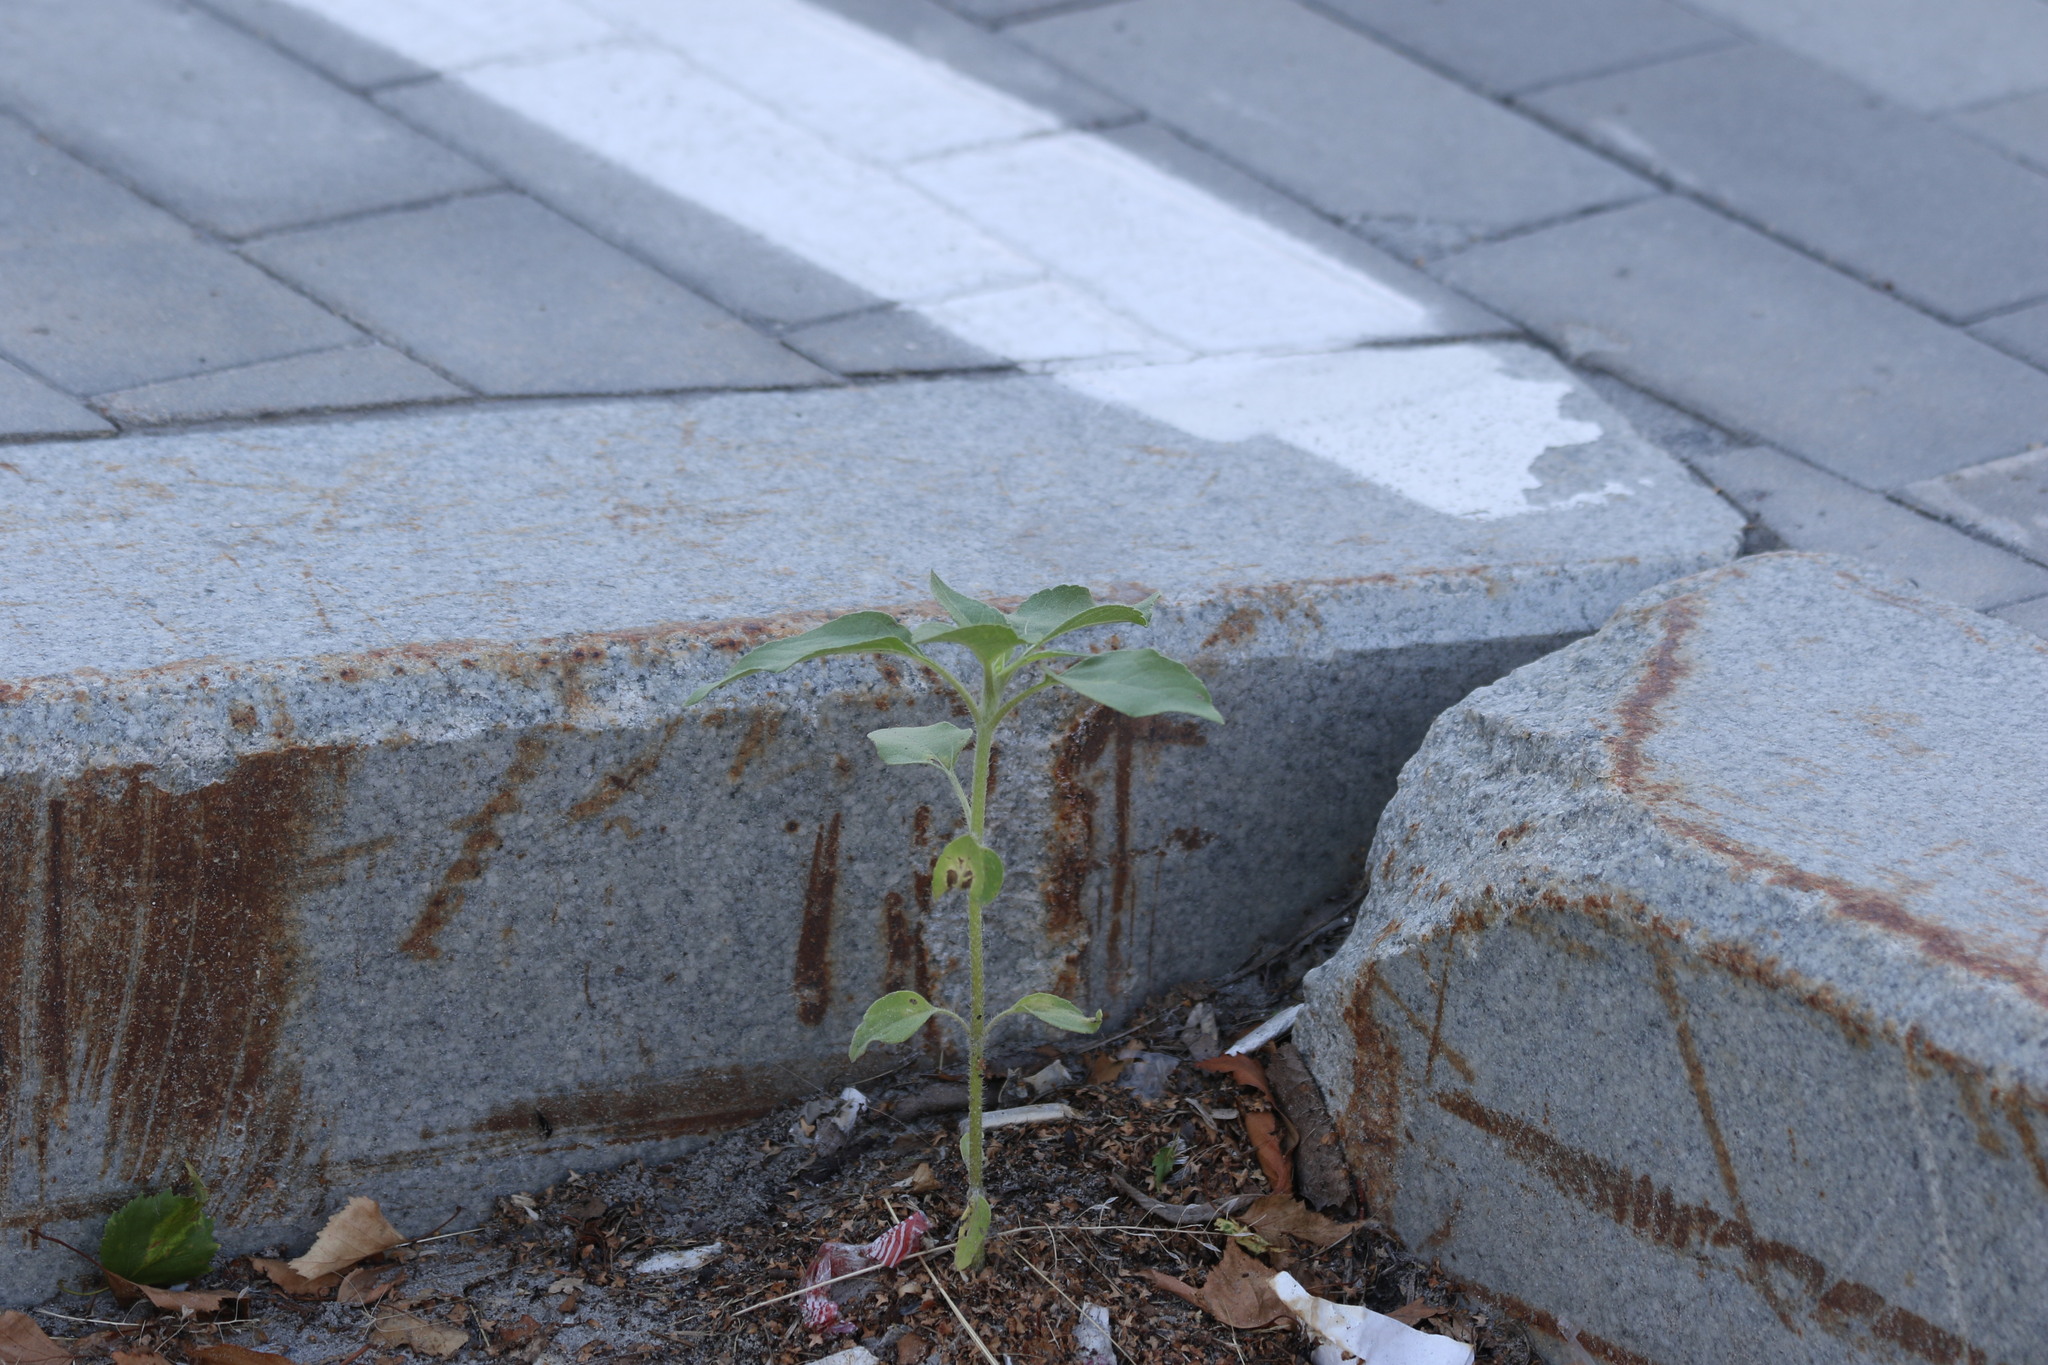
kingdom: Plantae
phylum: Tracheophyta
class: Magnoliopsida
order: Asterales
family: Asteraceae
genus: Helianthus
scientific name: Helianthus annuus
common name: Sunflower
